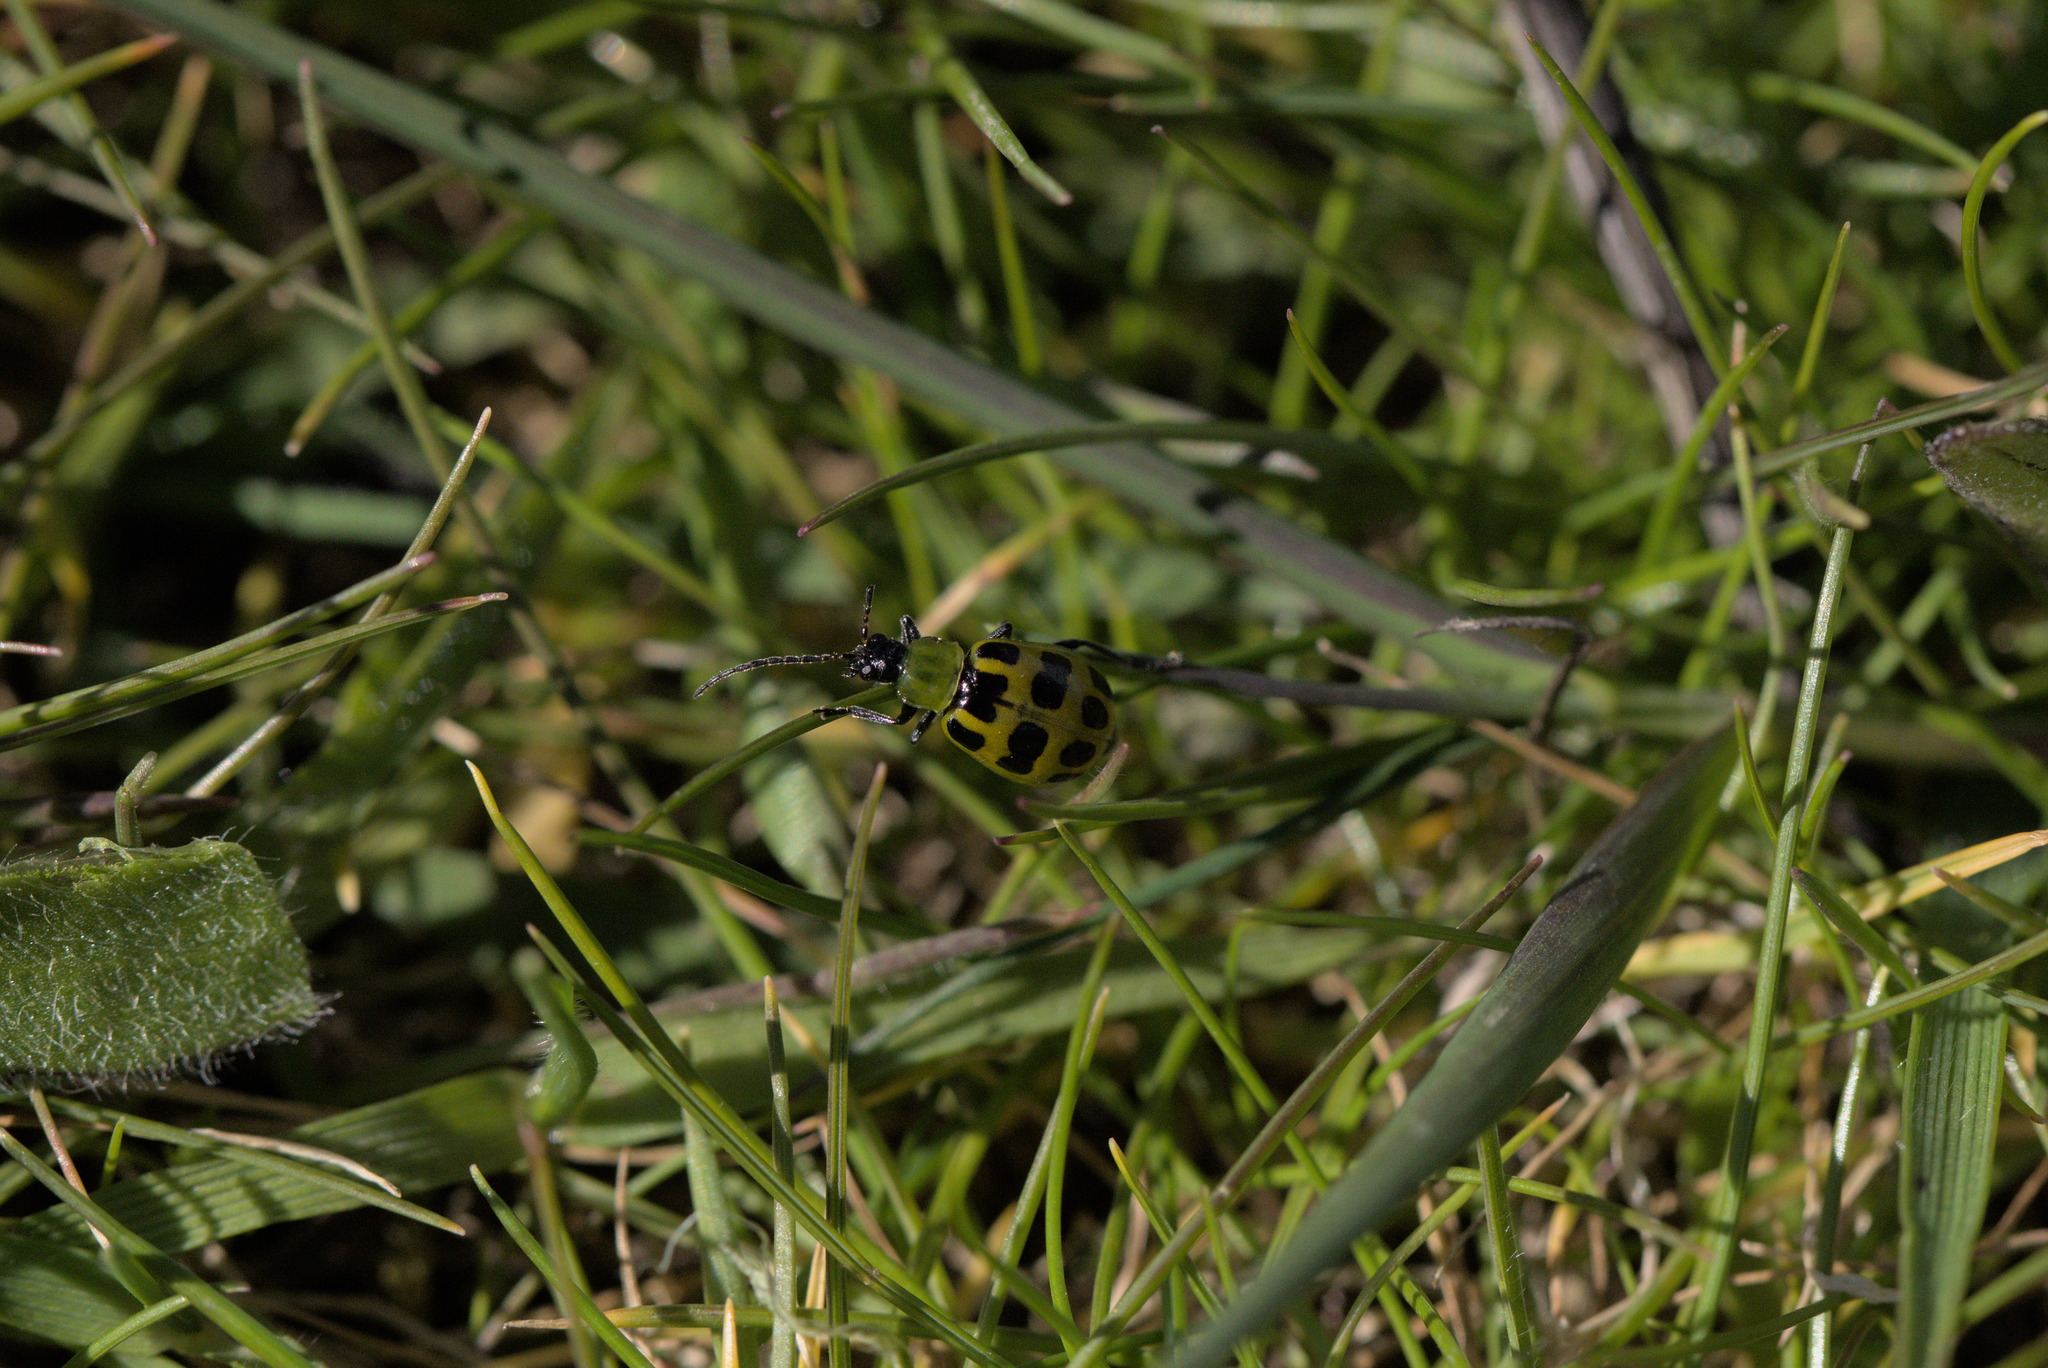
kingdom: Animalia
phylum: Arthropoda
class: Insecta
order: Coleoptera
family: Chrysomelidae
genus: Diabrotica
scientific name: Diabrotica undecimpunctata
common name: Spotted cucumber beetle
